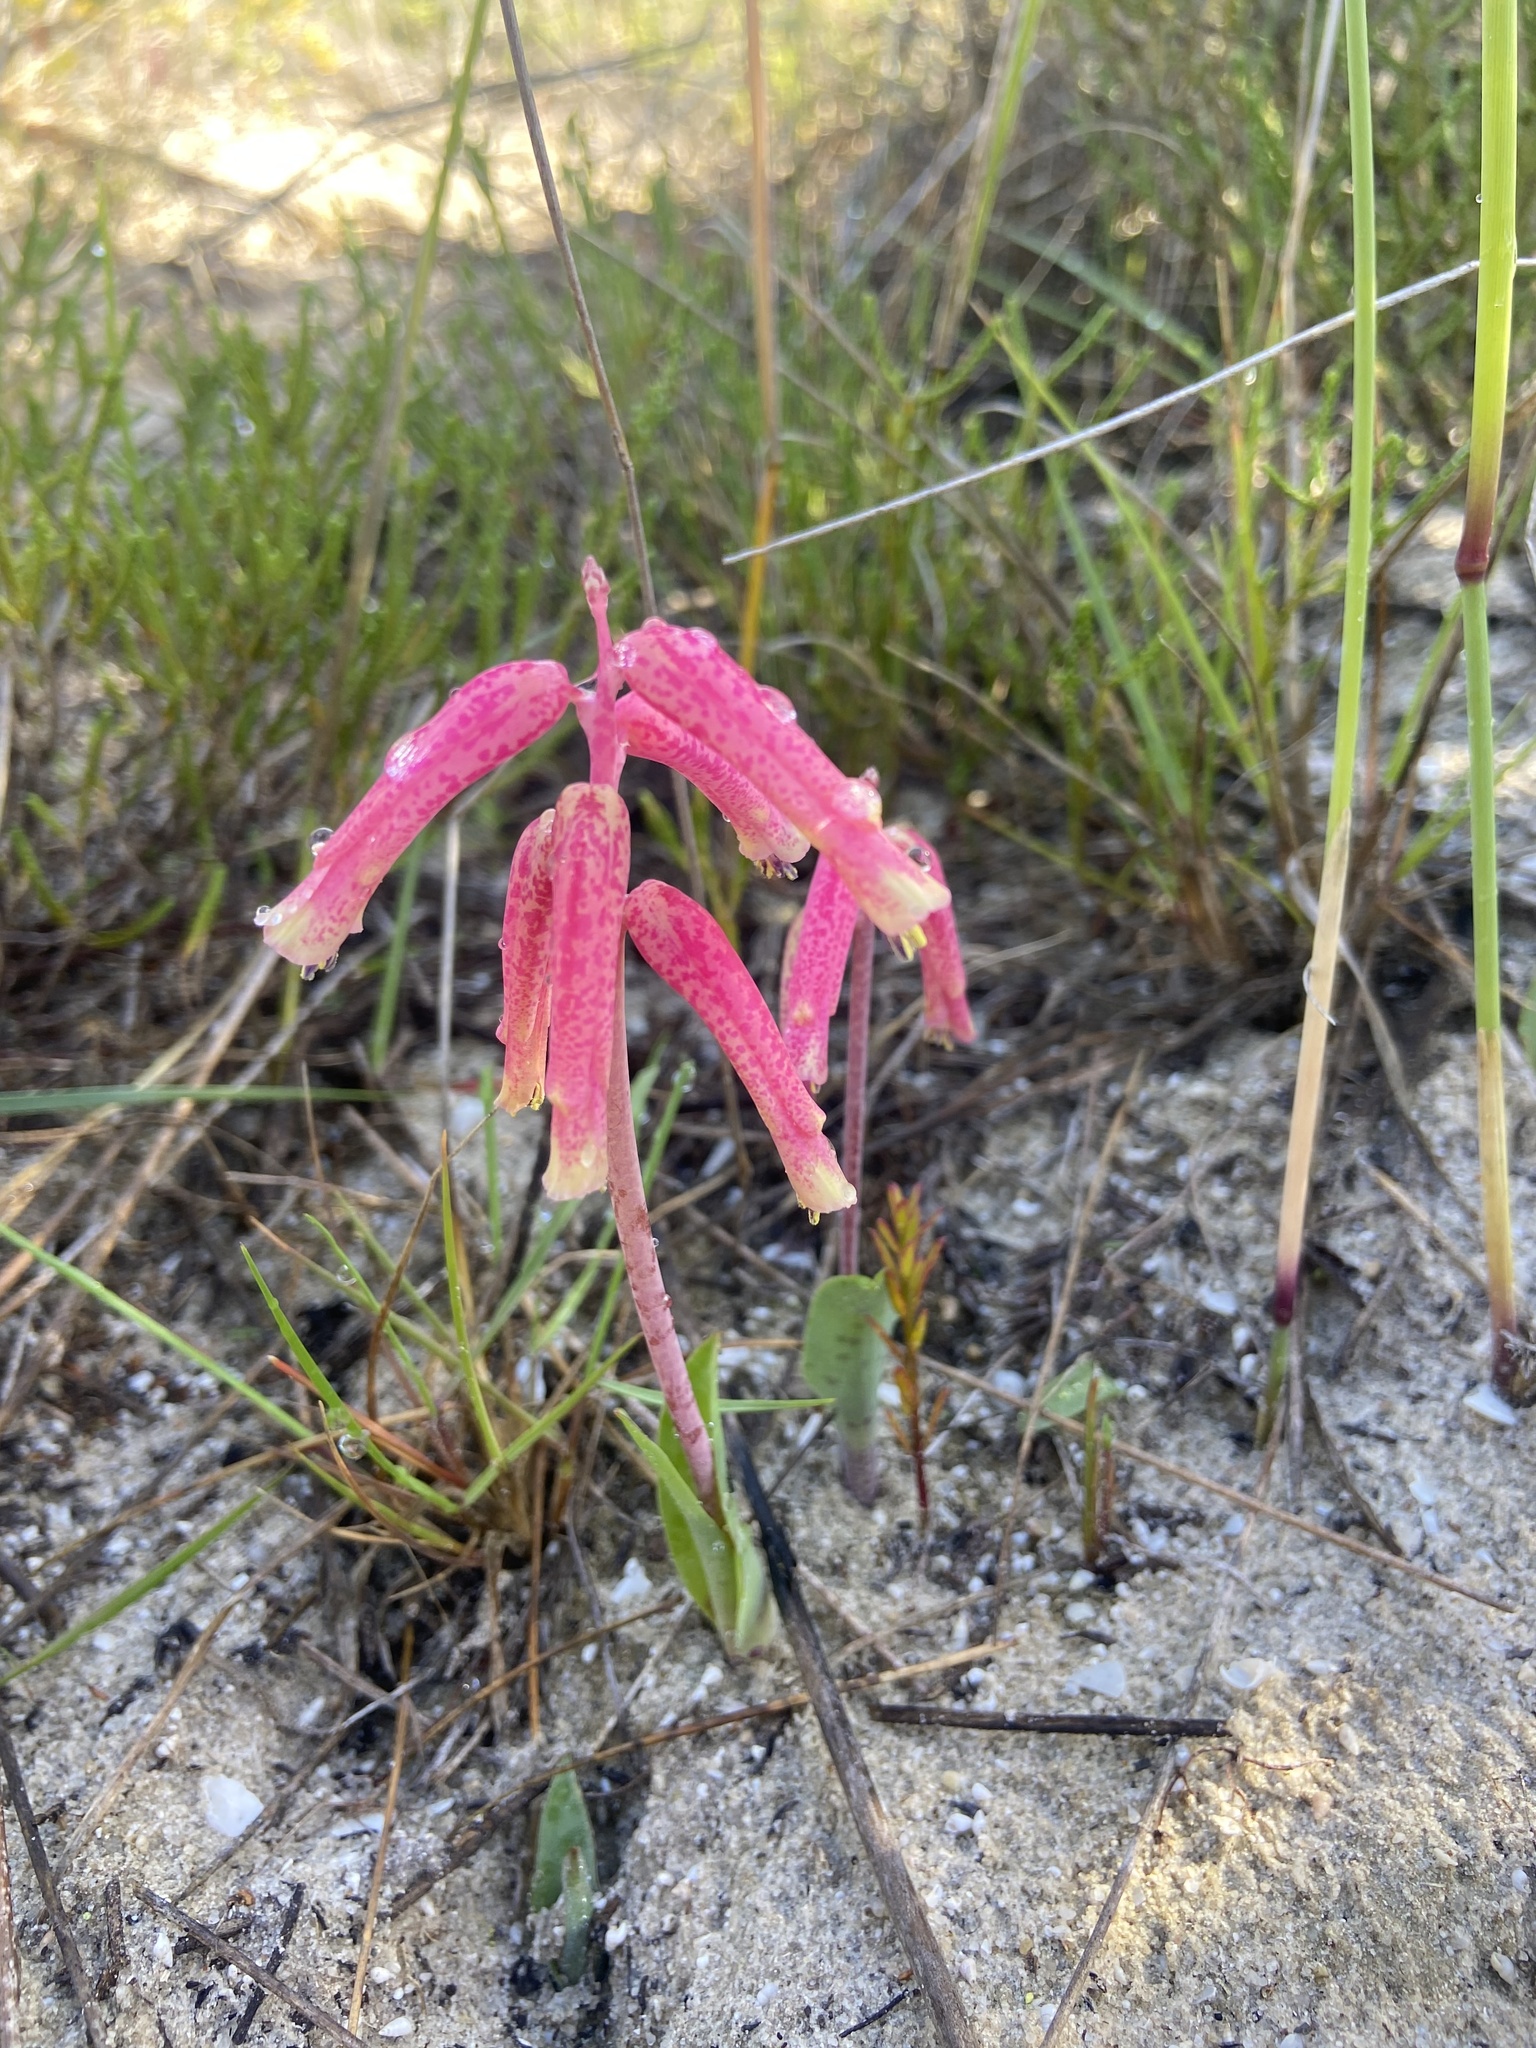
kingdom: Plantae
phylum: Tracheophyta
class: Liliopsida
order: Asparagales
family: Asparagaceae
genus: Lachenalia
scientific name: Lachenalia punctata
